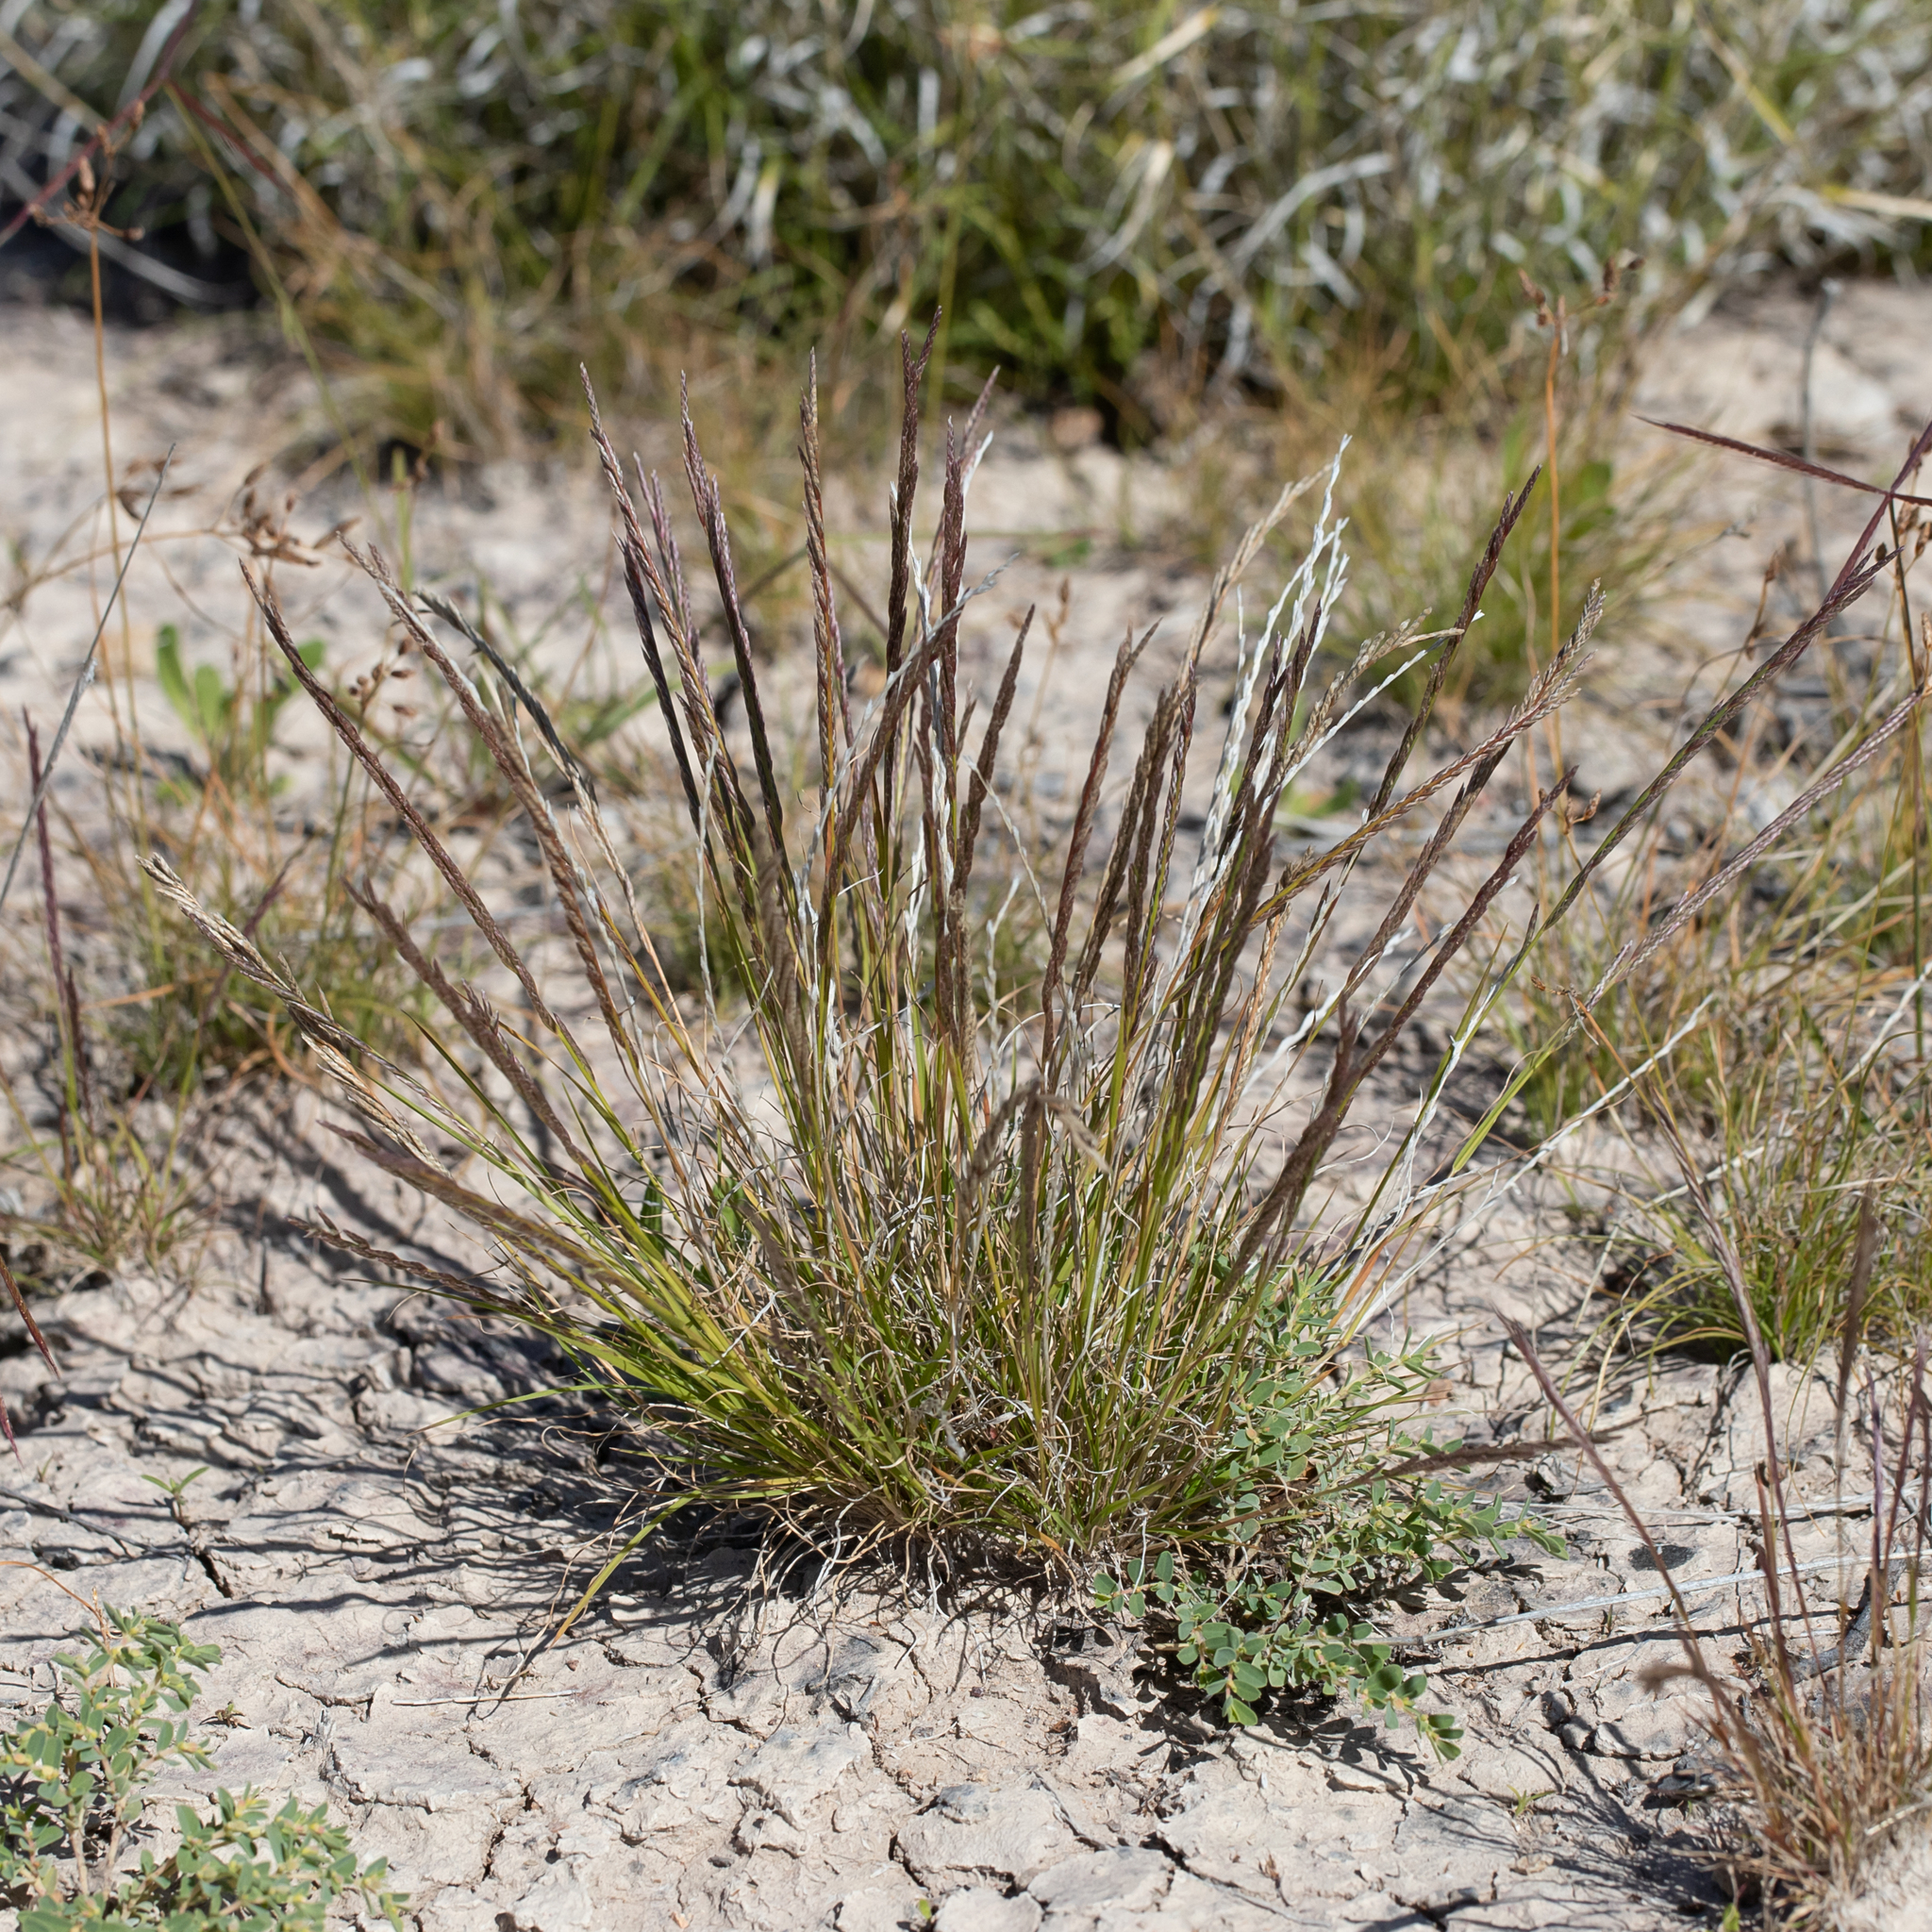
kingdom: Plantae
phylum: Tracheophyta
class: Liliopsida
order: Poales
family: Poaceae
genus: Tripogonella
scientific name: Tripogonella loliiformis
